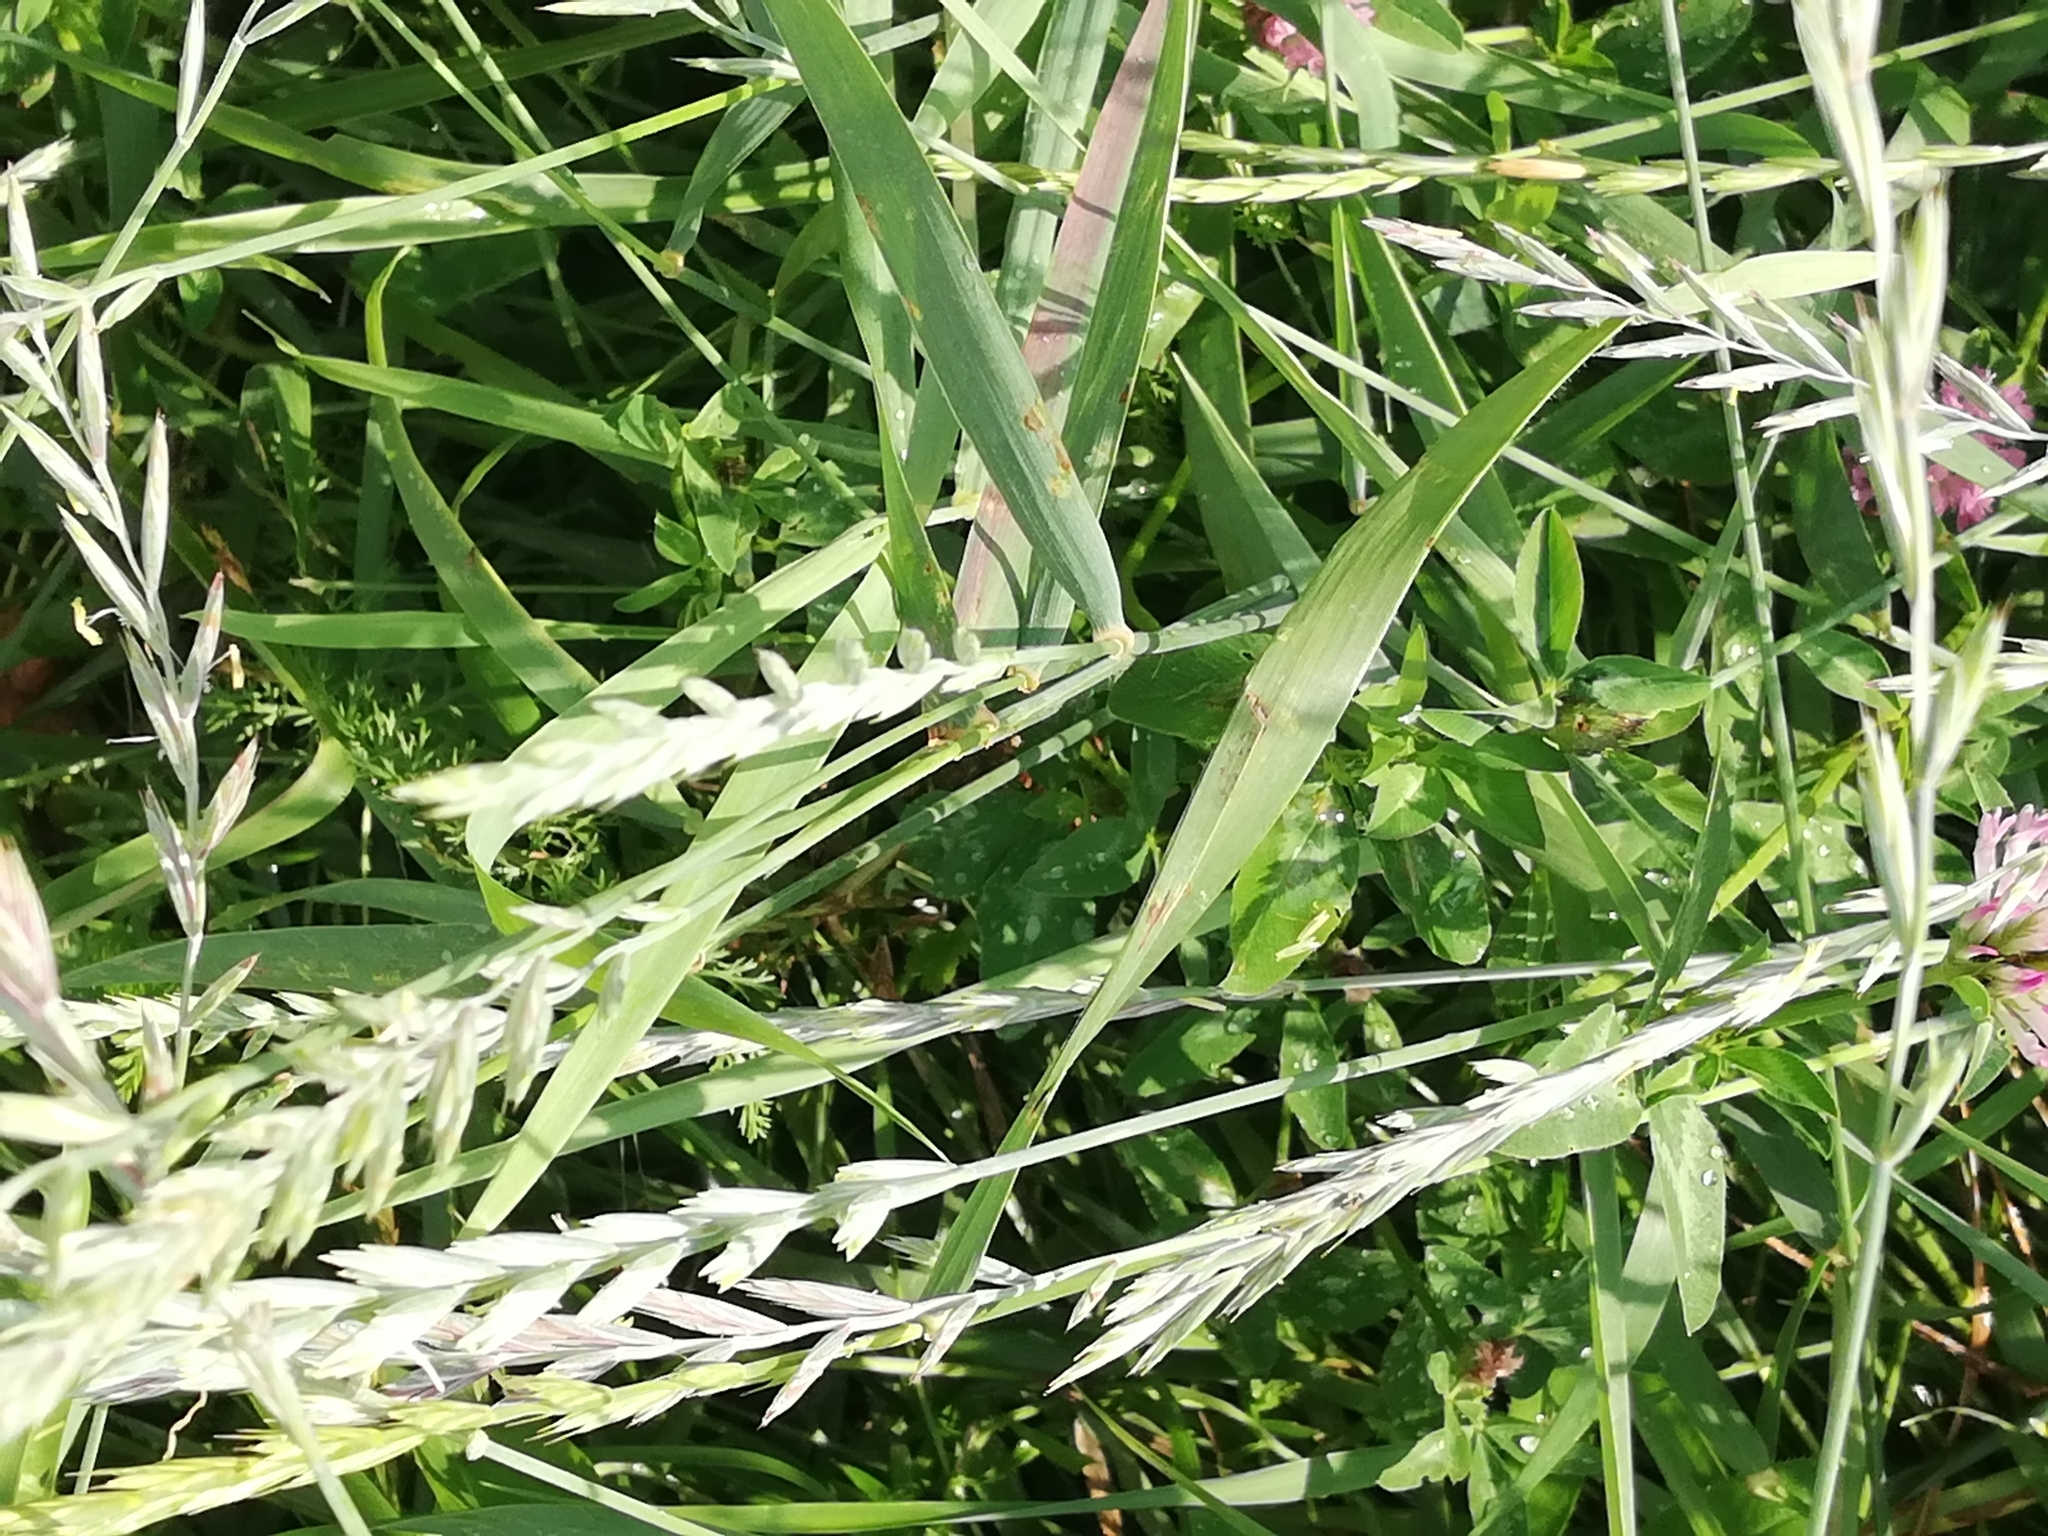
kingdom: Plantae
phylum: Tracheophyta
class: Liliopsida
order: Poales
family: Poaceae
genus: Elymus
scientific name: Elymus repens
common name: Quackgrass
